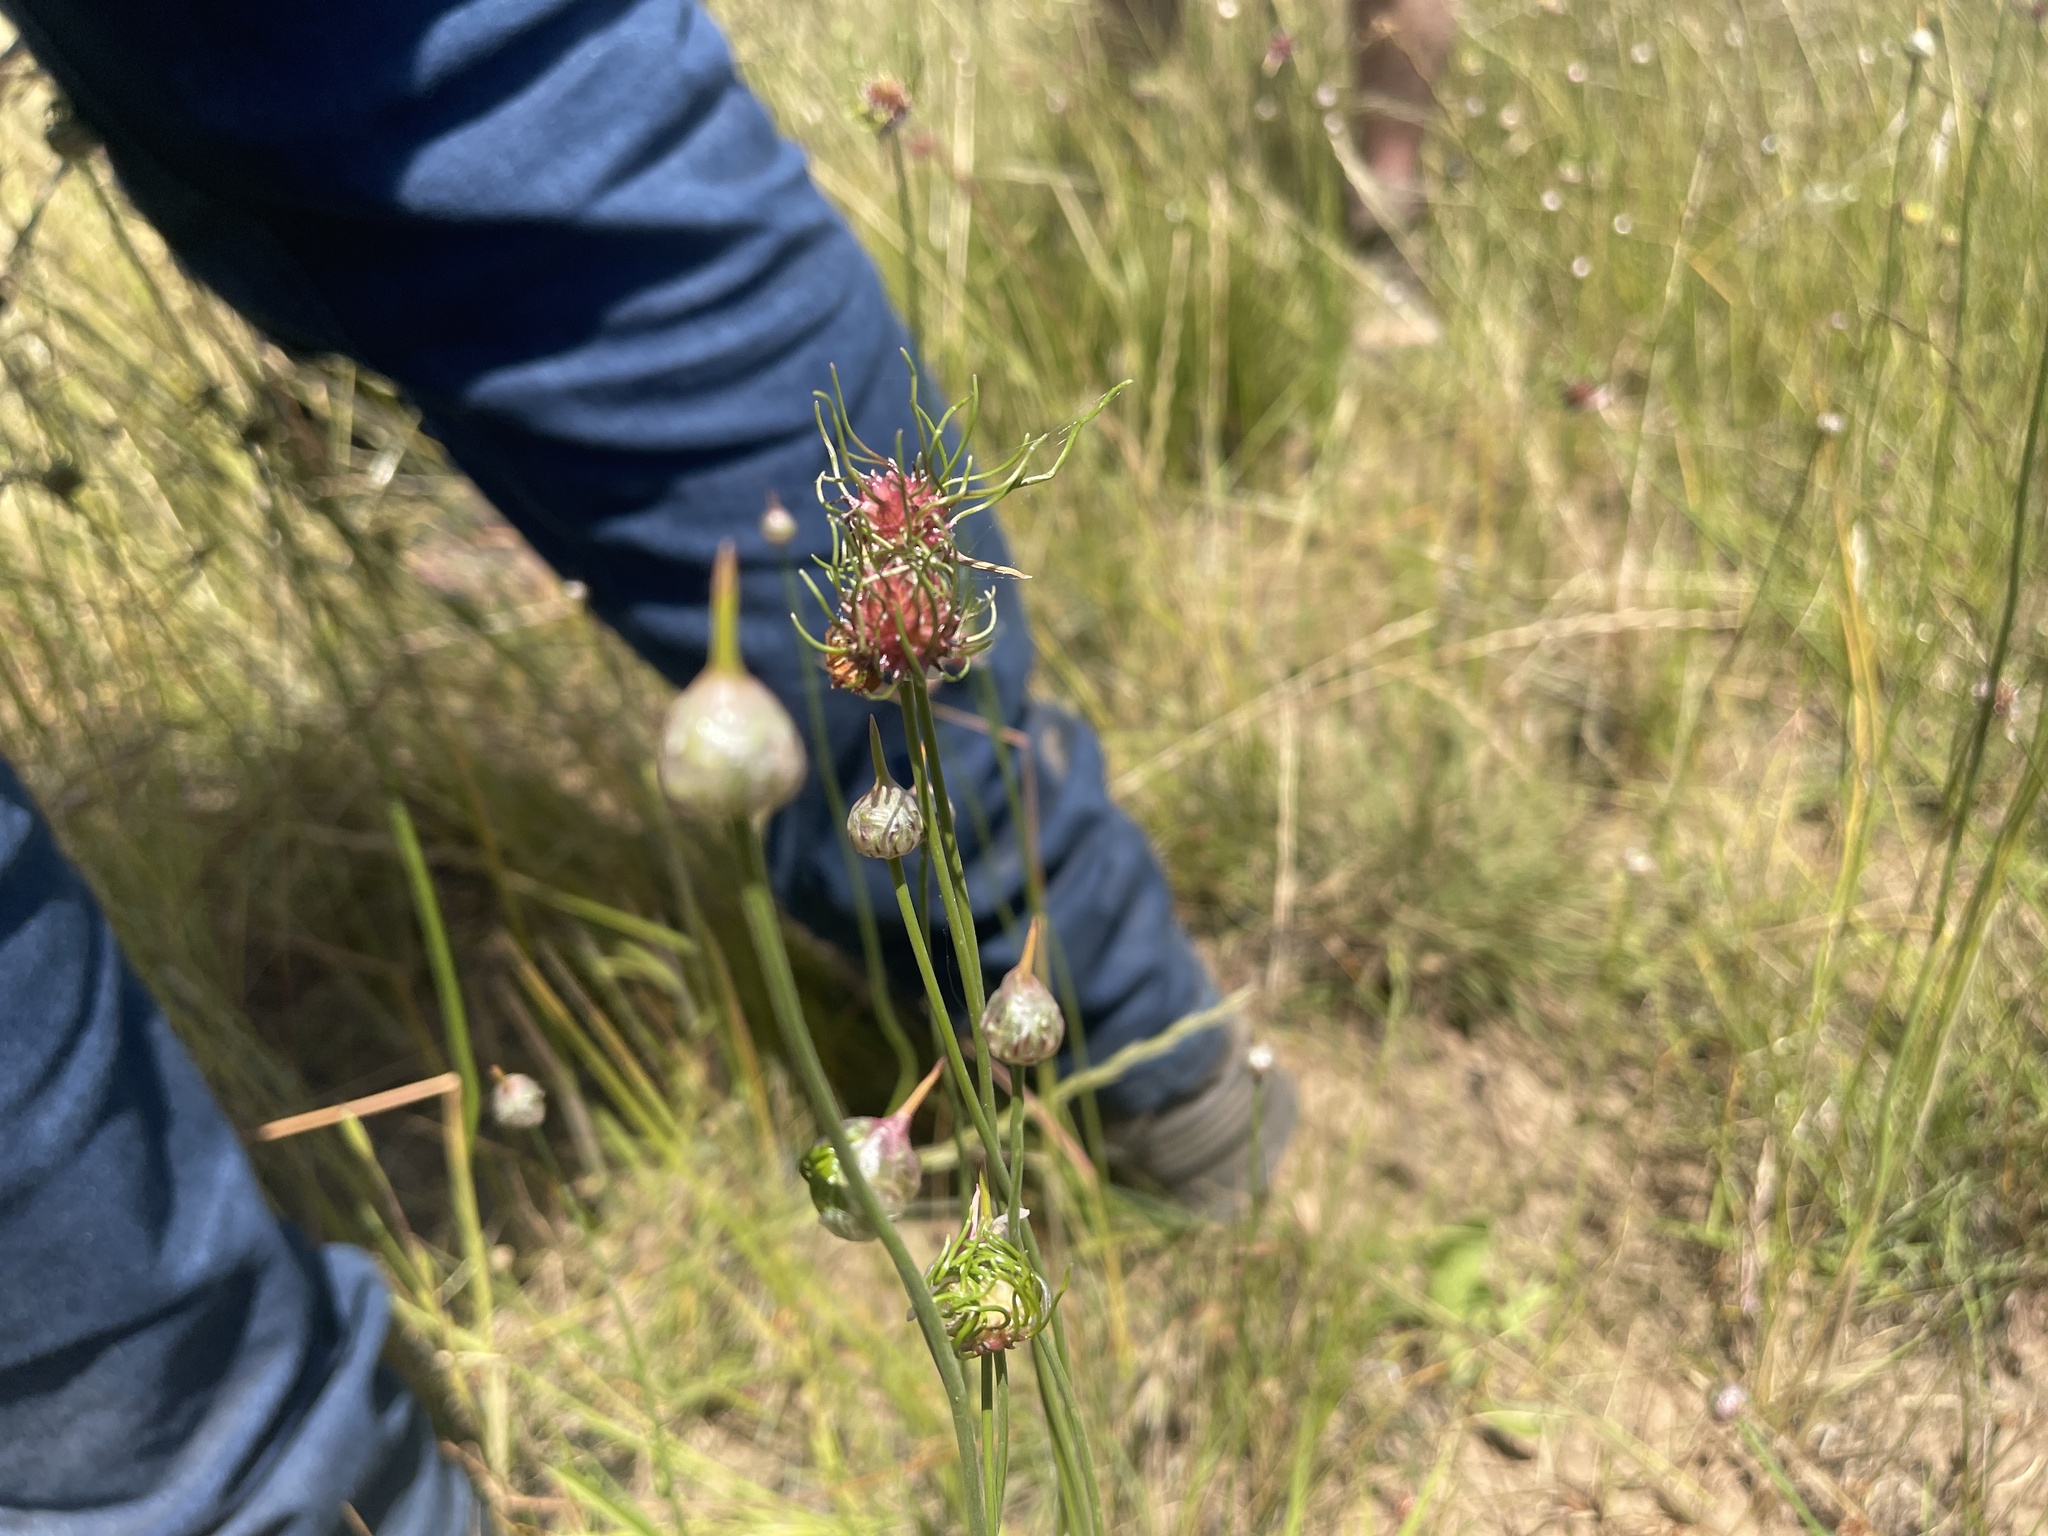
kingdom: Plantae
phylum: Tracheophyta
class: Liliopsida
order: Asparagales
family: Amaryllidaceae
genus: Allium
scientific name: Allium vineale
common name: Crow garlic
